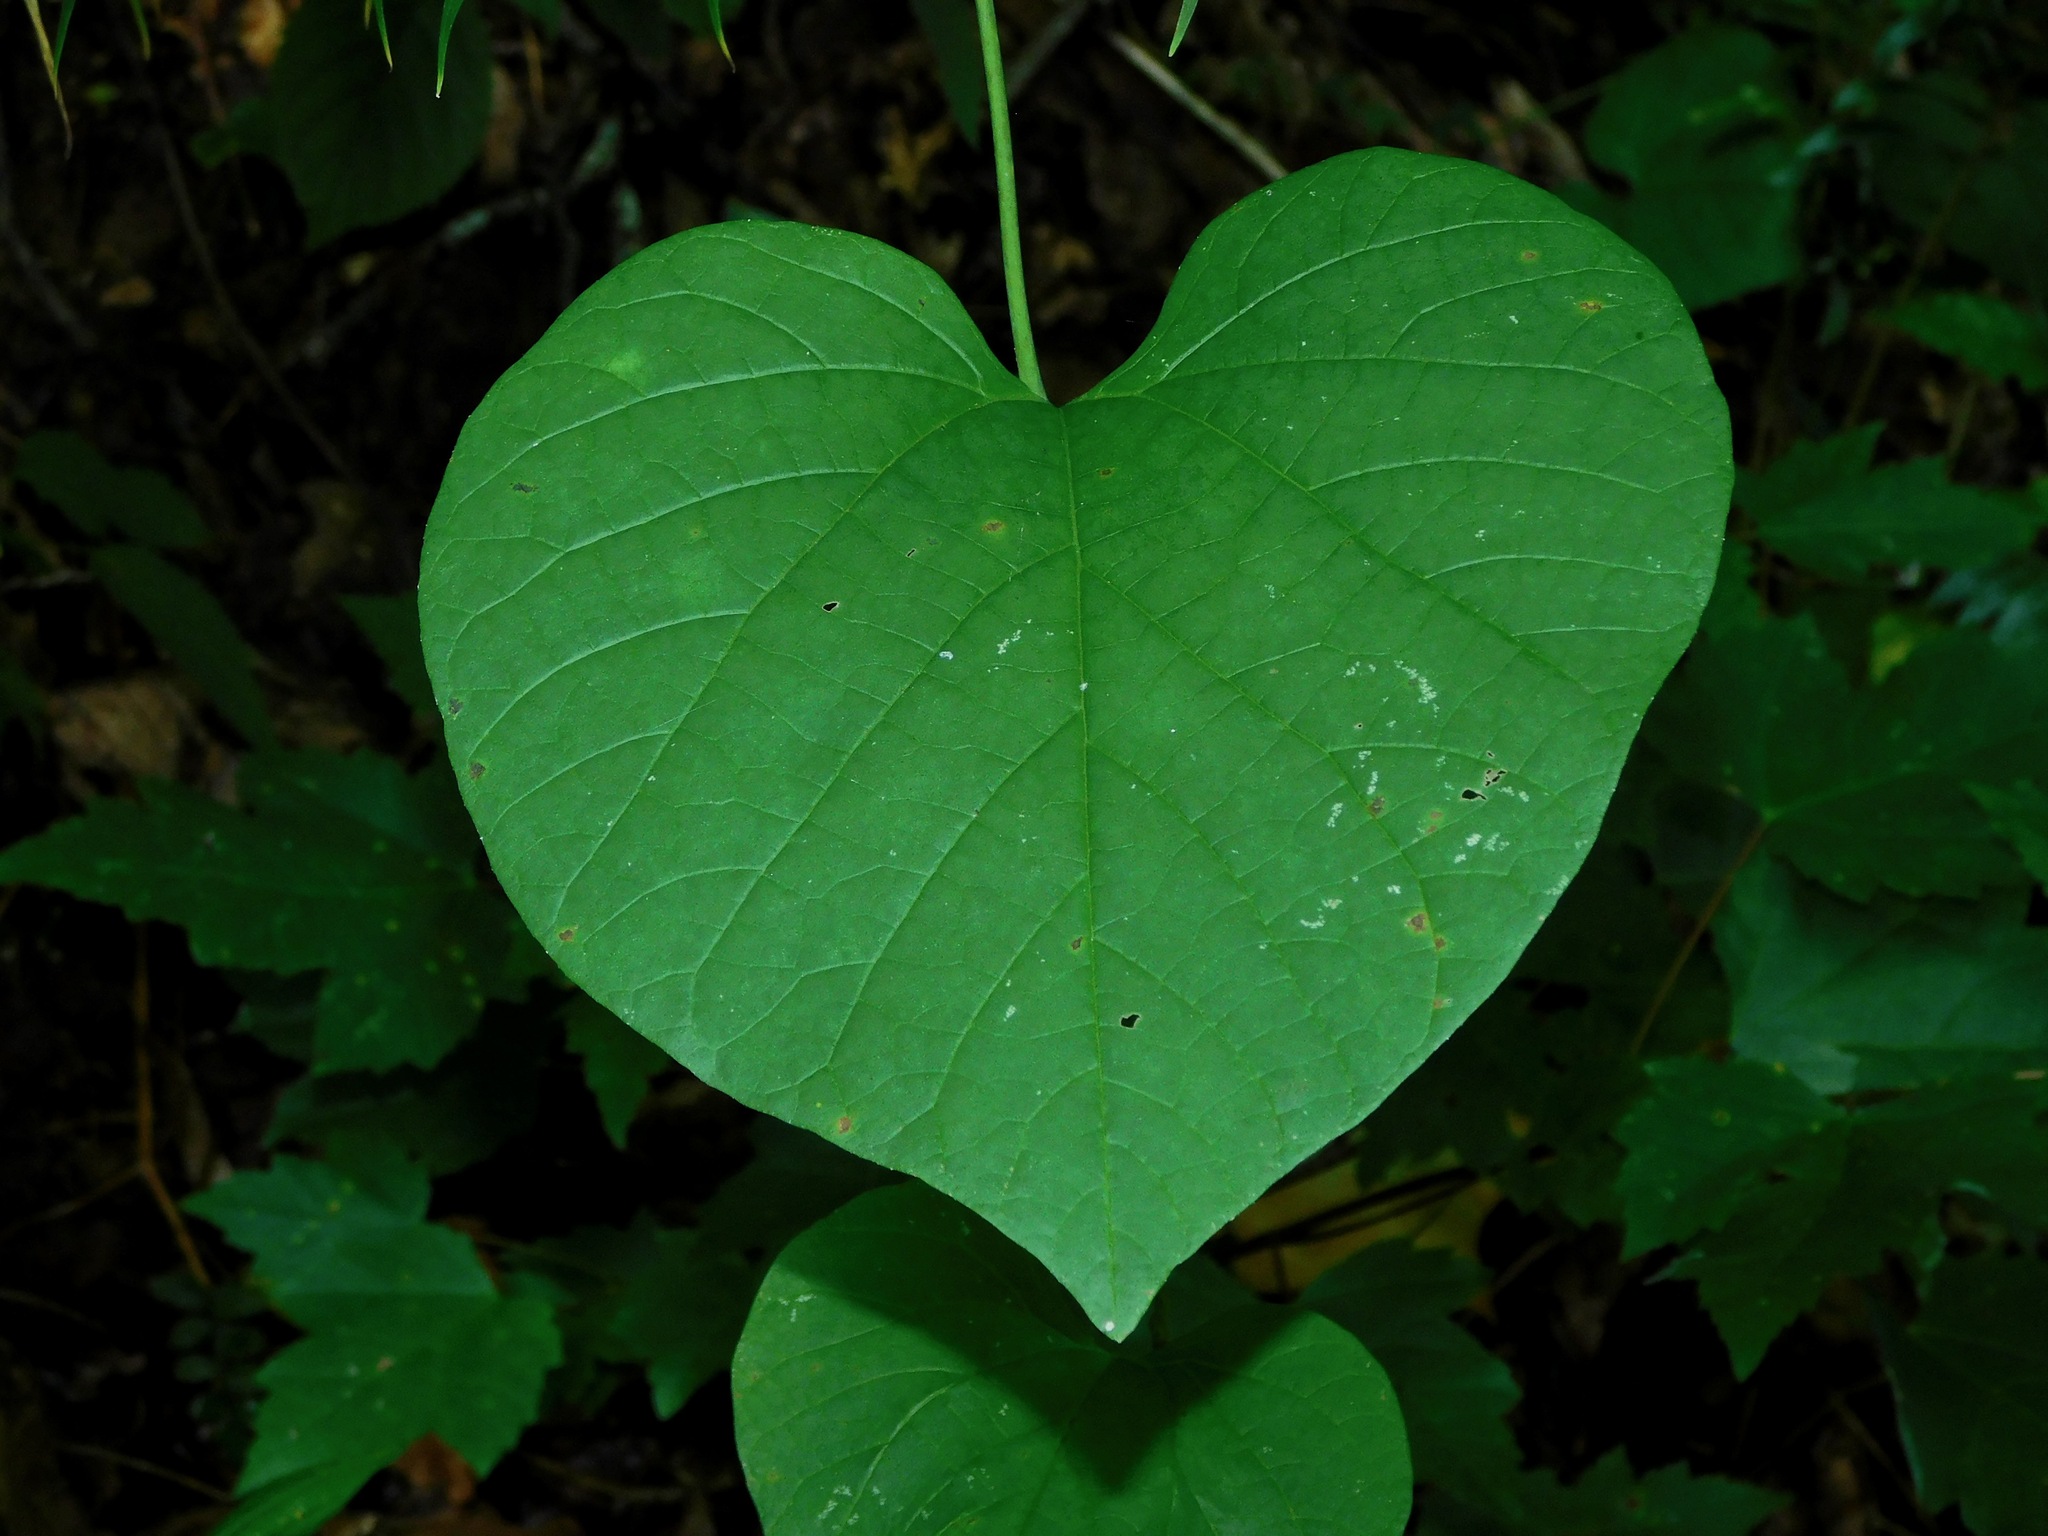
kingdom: Plantae
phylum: Tracheophyta
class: Magnoliopsida
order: Piperales
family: Aristolochiaceae
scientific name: Aristolochiaceae
